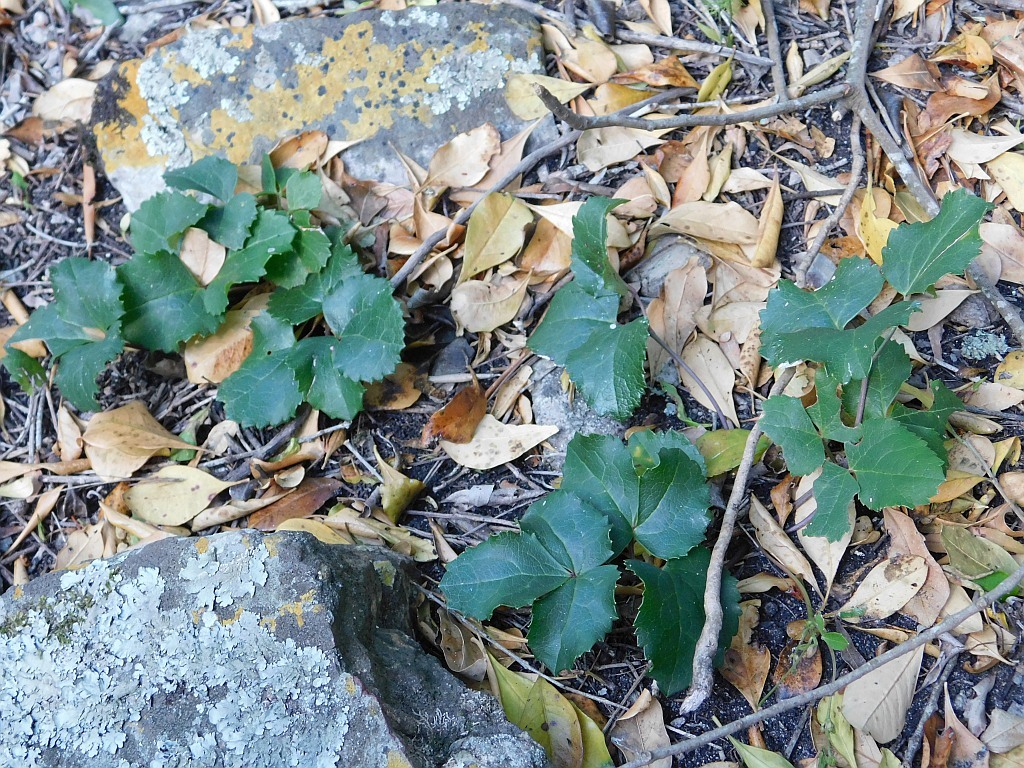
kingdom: Plantae
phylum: Tracheophyta
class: Magnoliopsida
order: Ranunculales
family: Ranunculaceae
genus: Knowltonia
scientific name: Knowltonia vesicatoria
